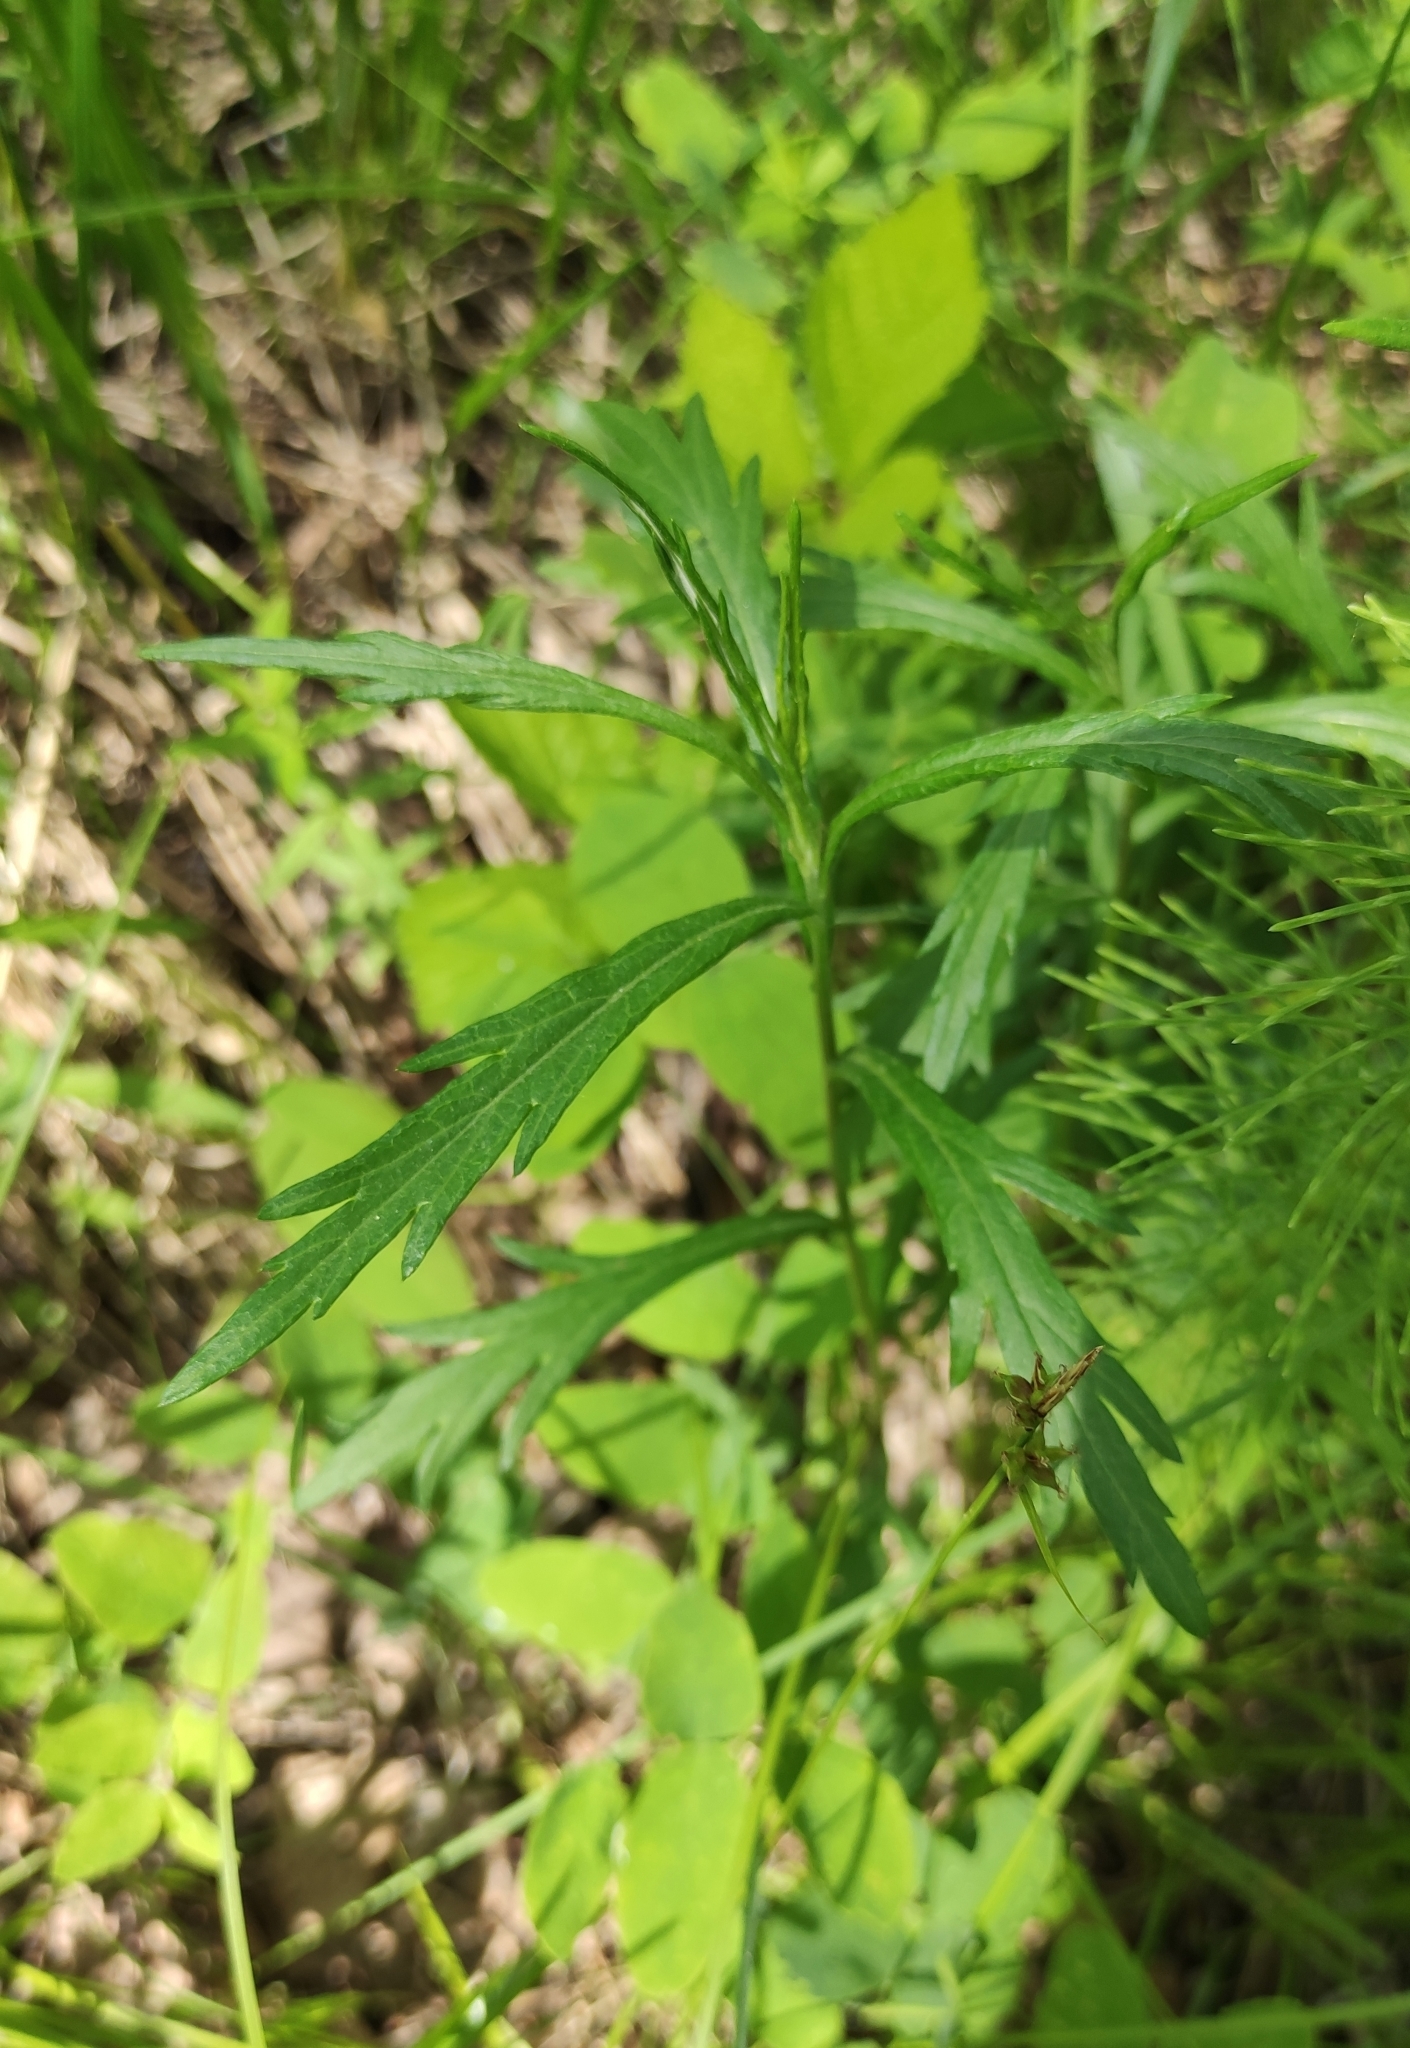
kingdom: Plantae
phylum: Tracheophyta
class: Magnoliopsida
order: Asterales
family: Asteraceae
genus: Artemisia
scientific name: Artemisia integrifolia
